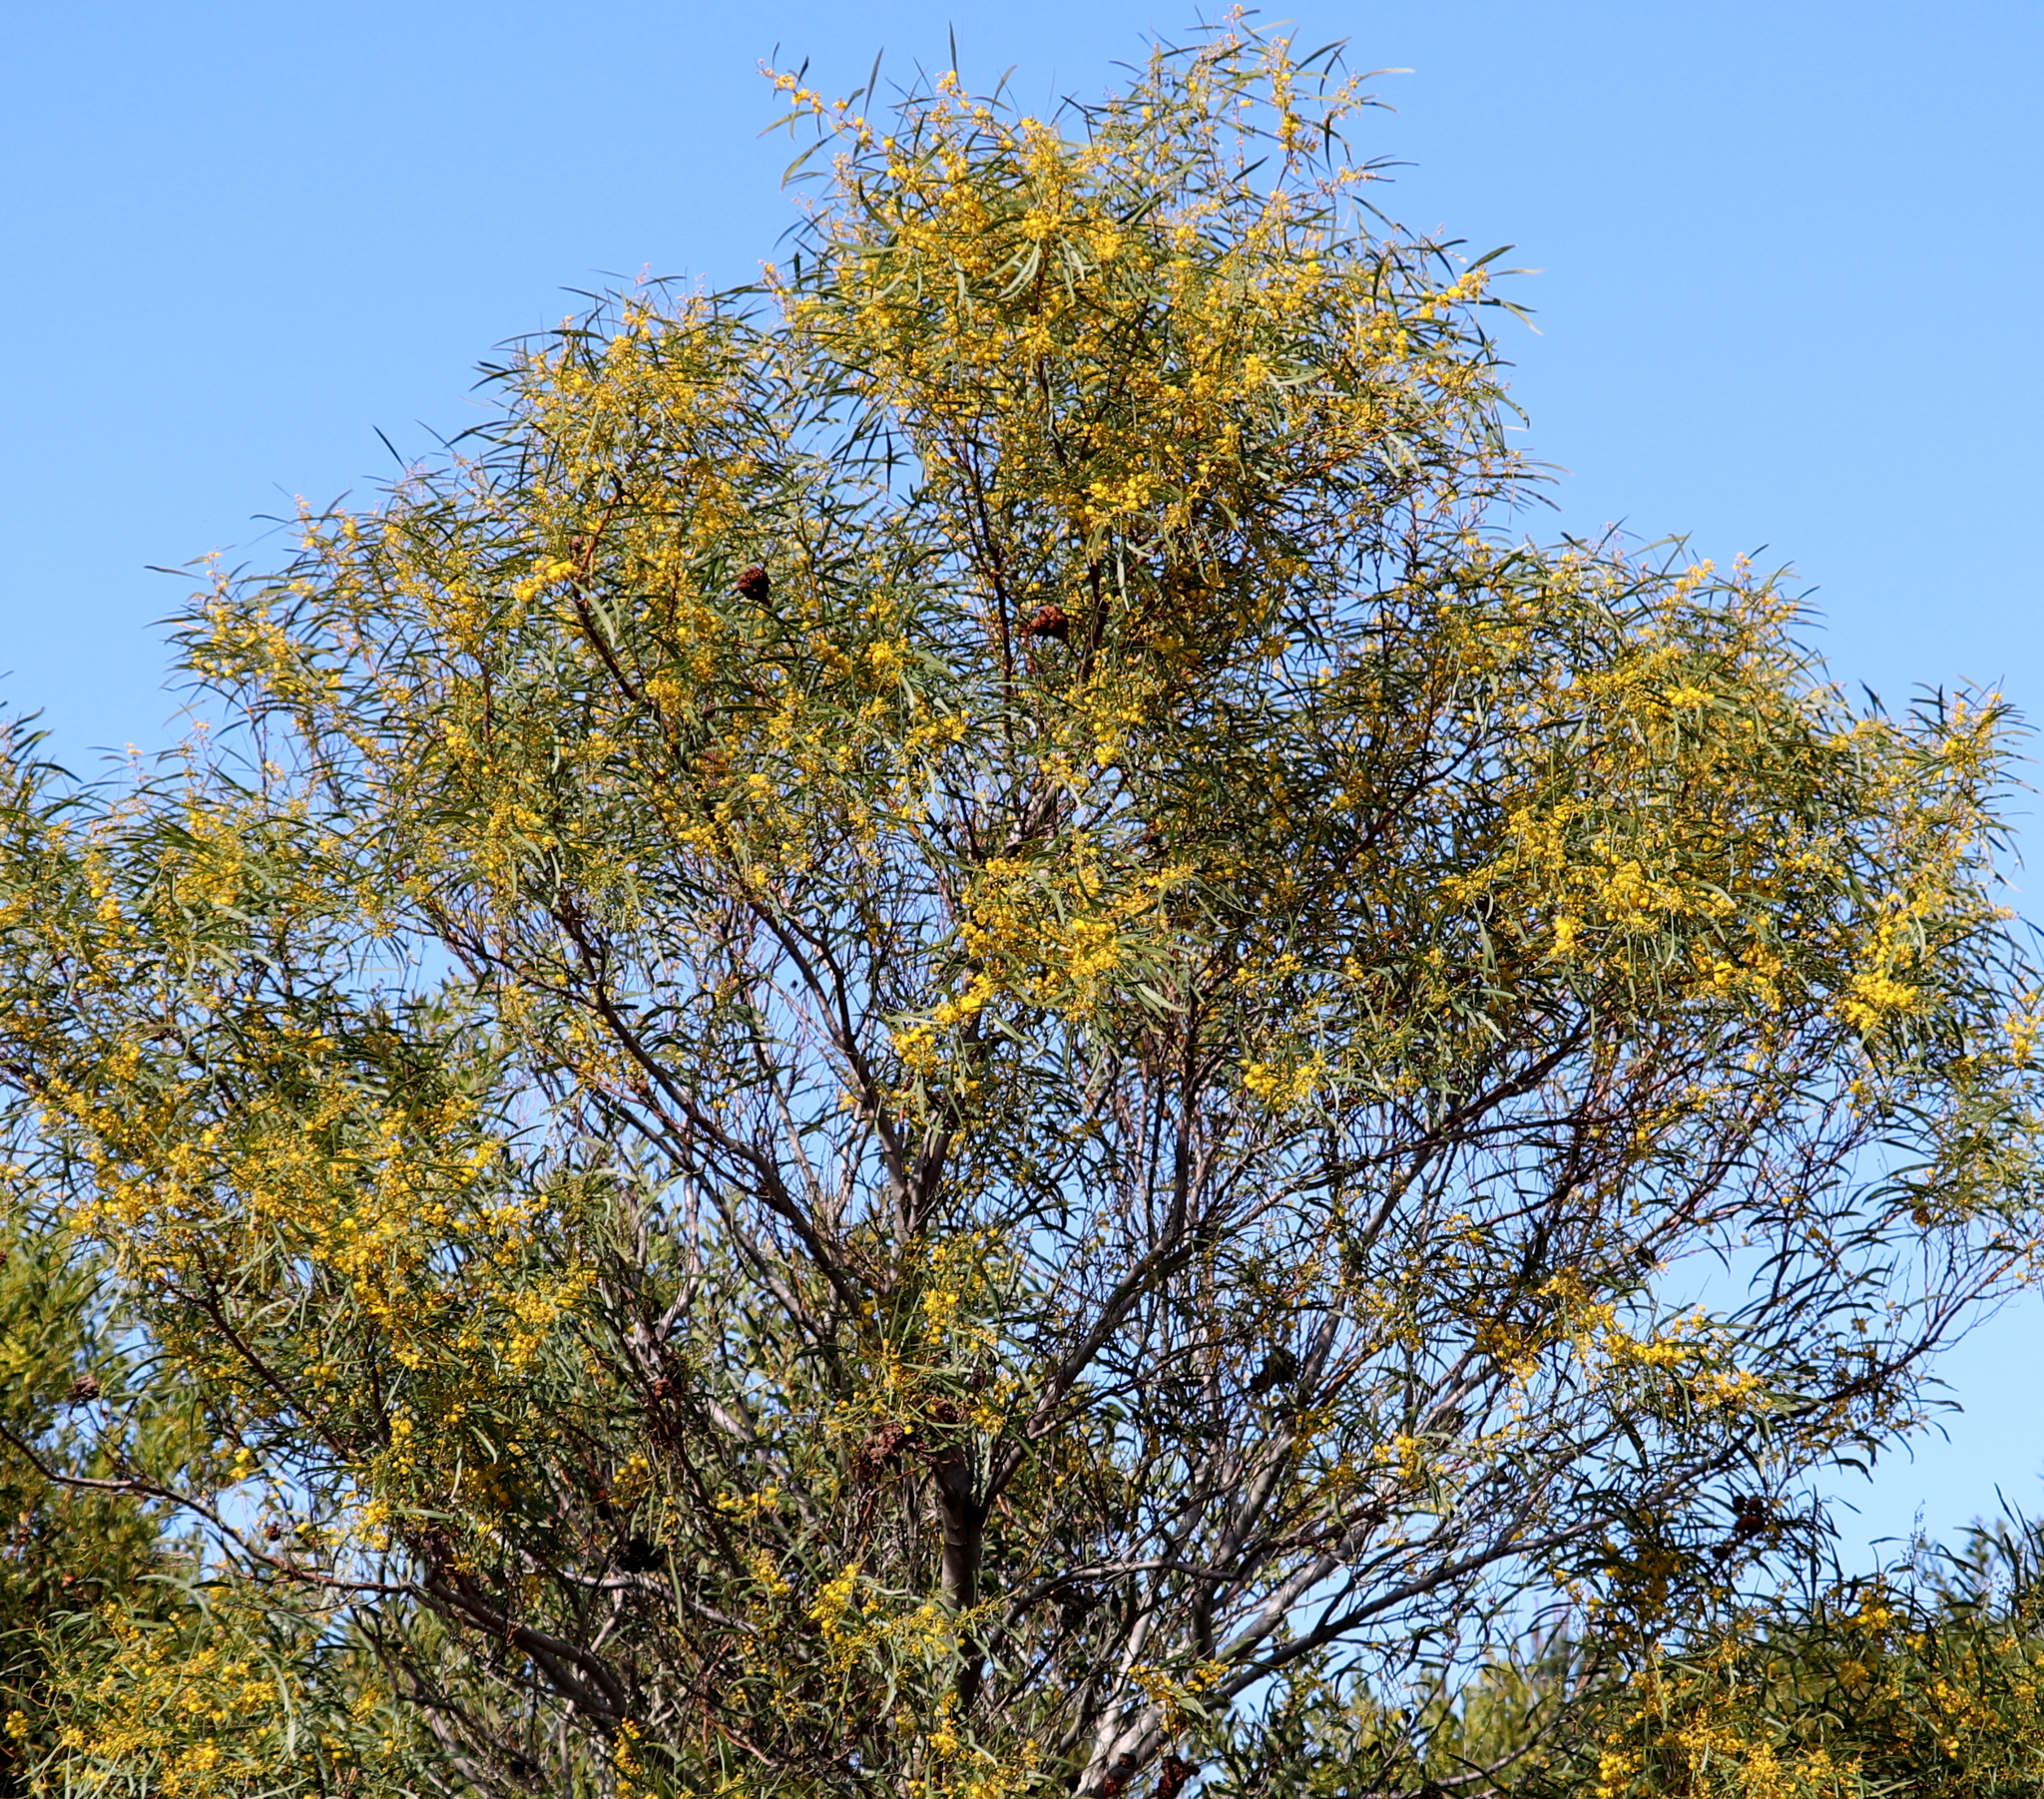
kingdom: Plantae
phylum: Tracheophyta
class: Magnoliopsida
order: Fabales
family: Fabaceae
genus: Acacia
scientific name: Acacia saligna
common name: Orange wattle
